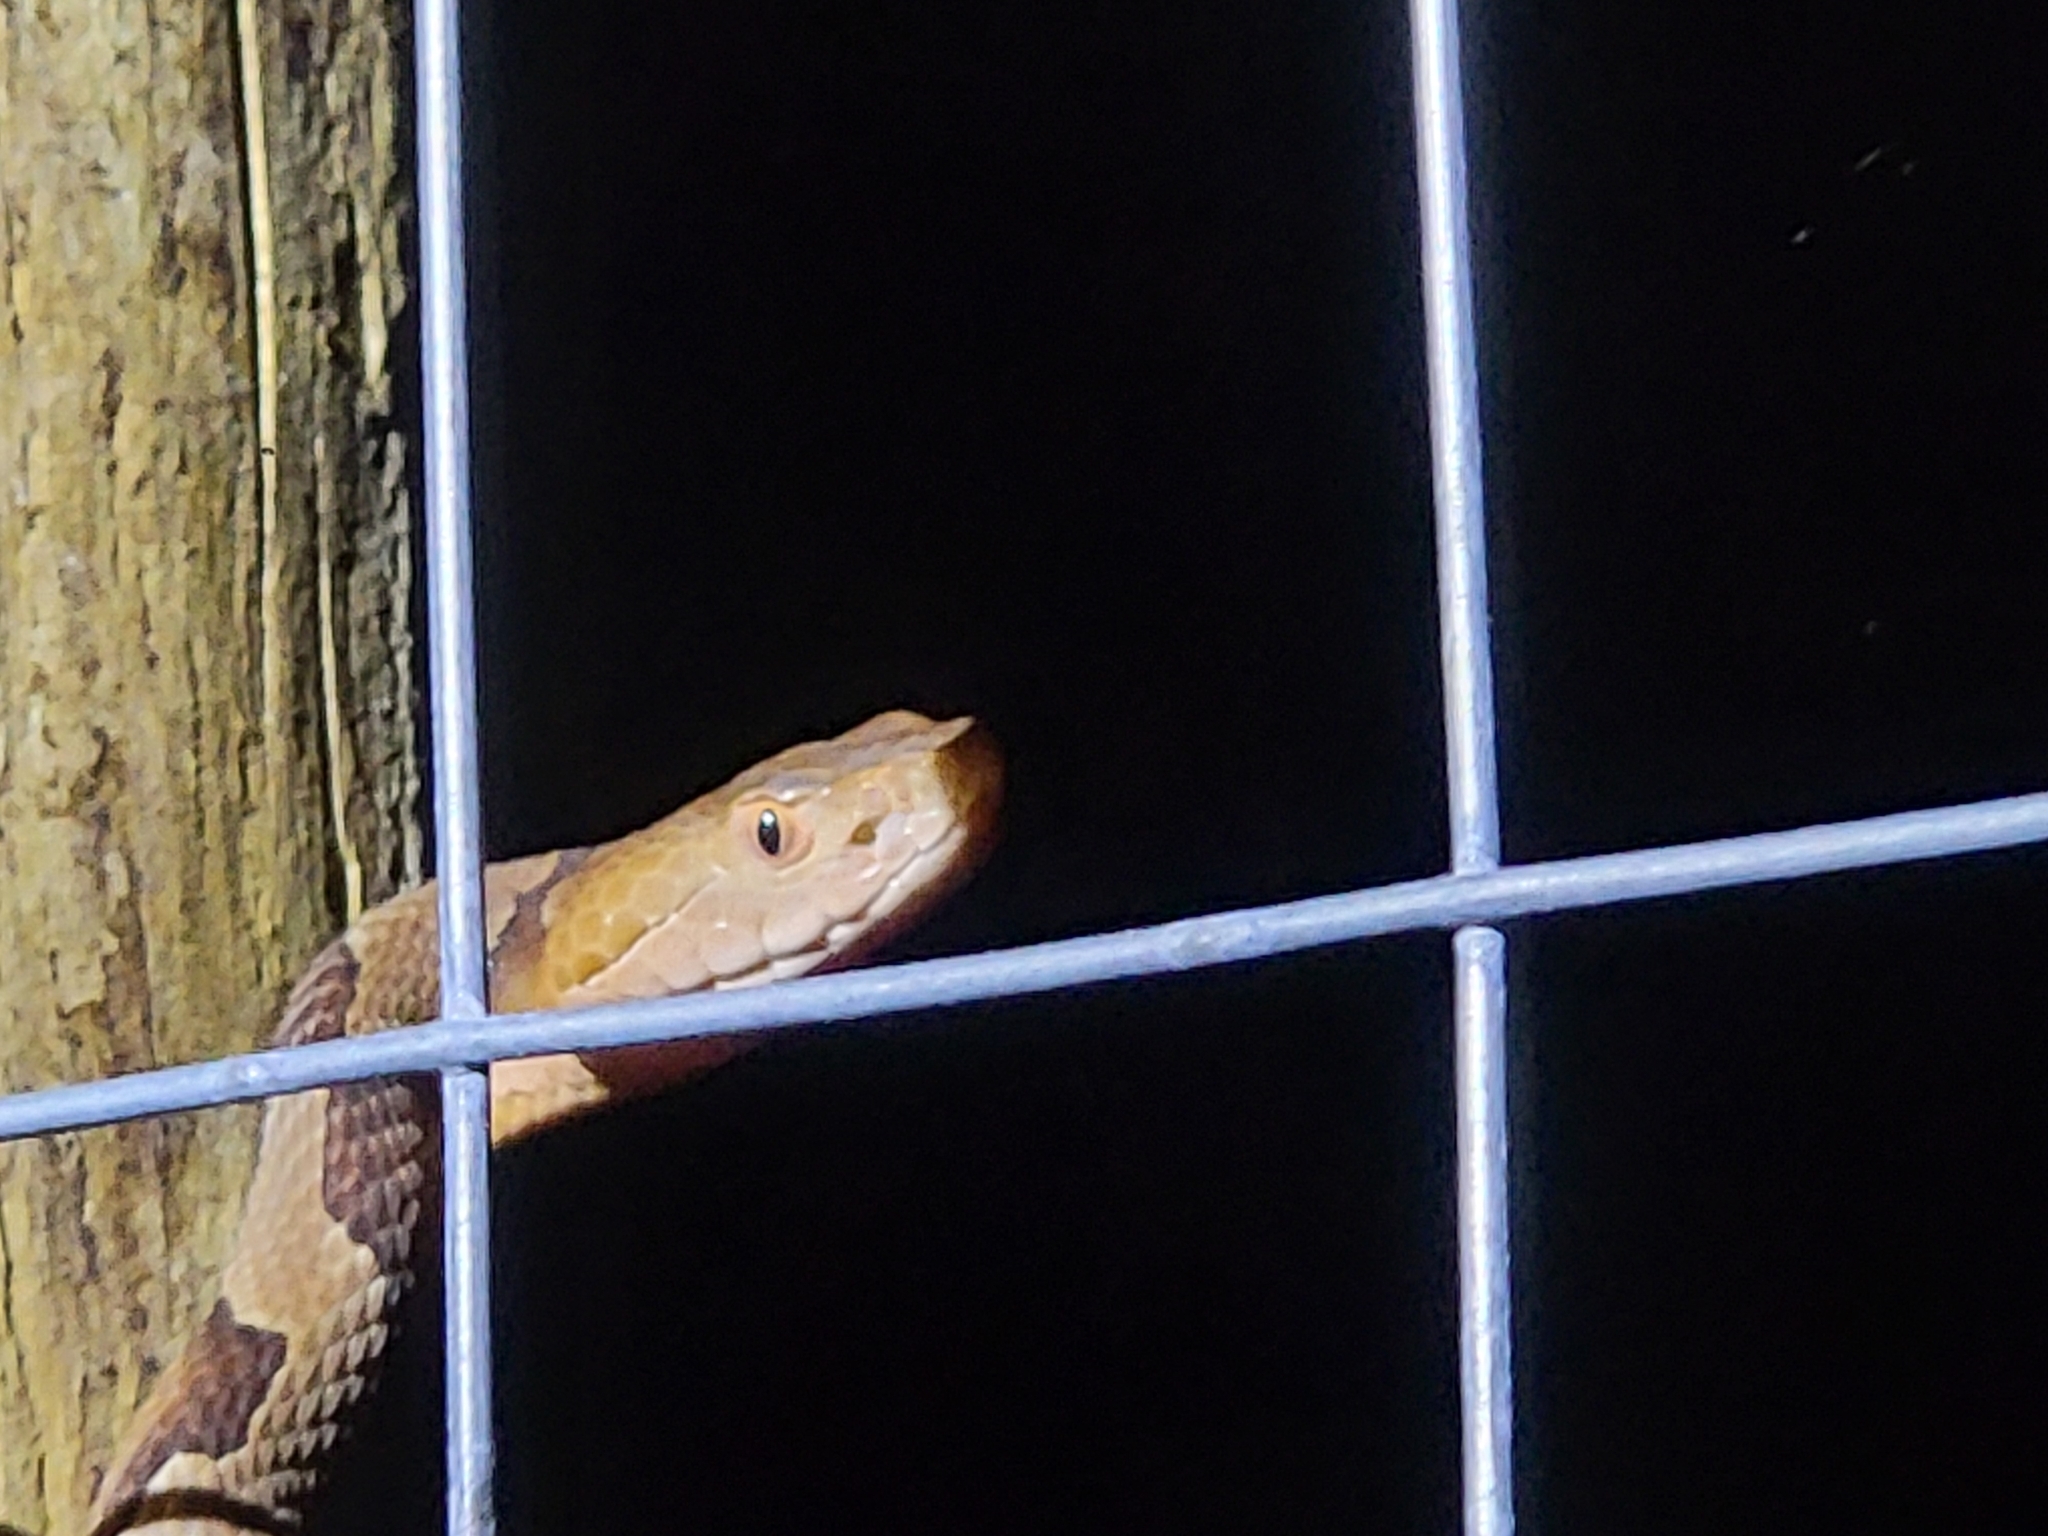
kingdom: Animalia
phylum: Chordata
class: Squamata
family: Viperidae
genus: Agkistrodon
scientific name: Agkistrodon contortrix
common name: Northern copperhead
